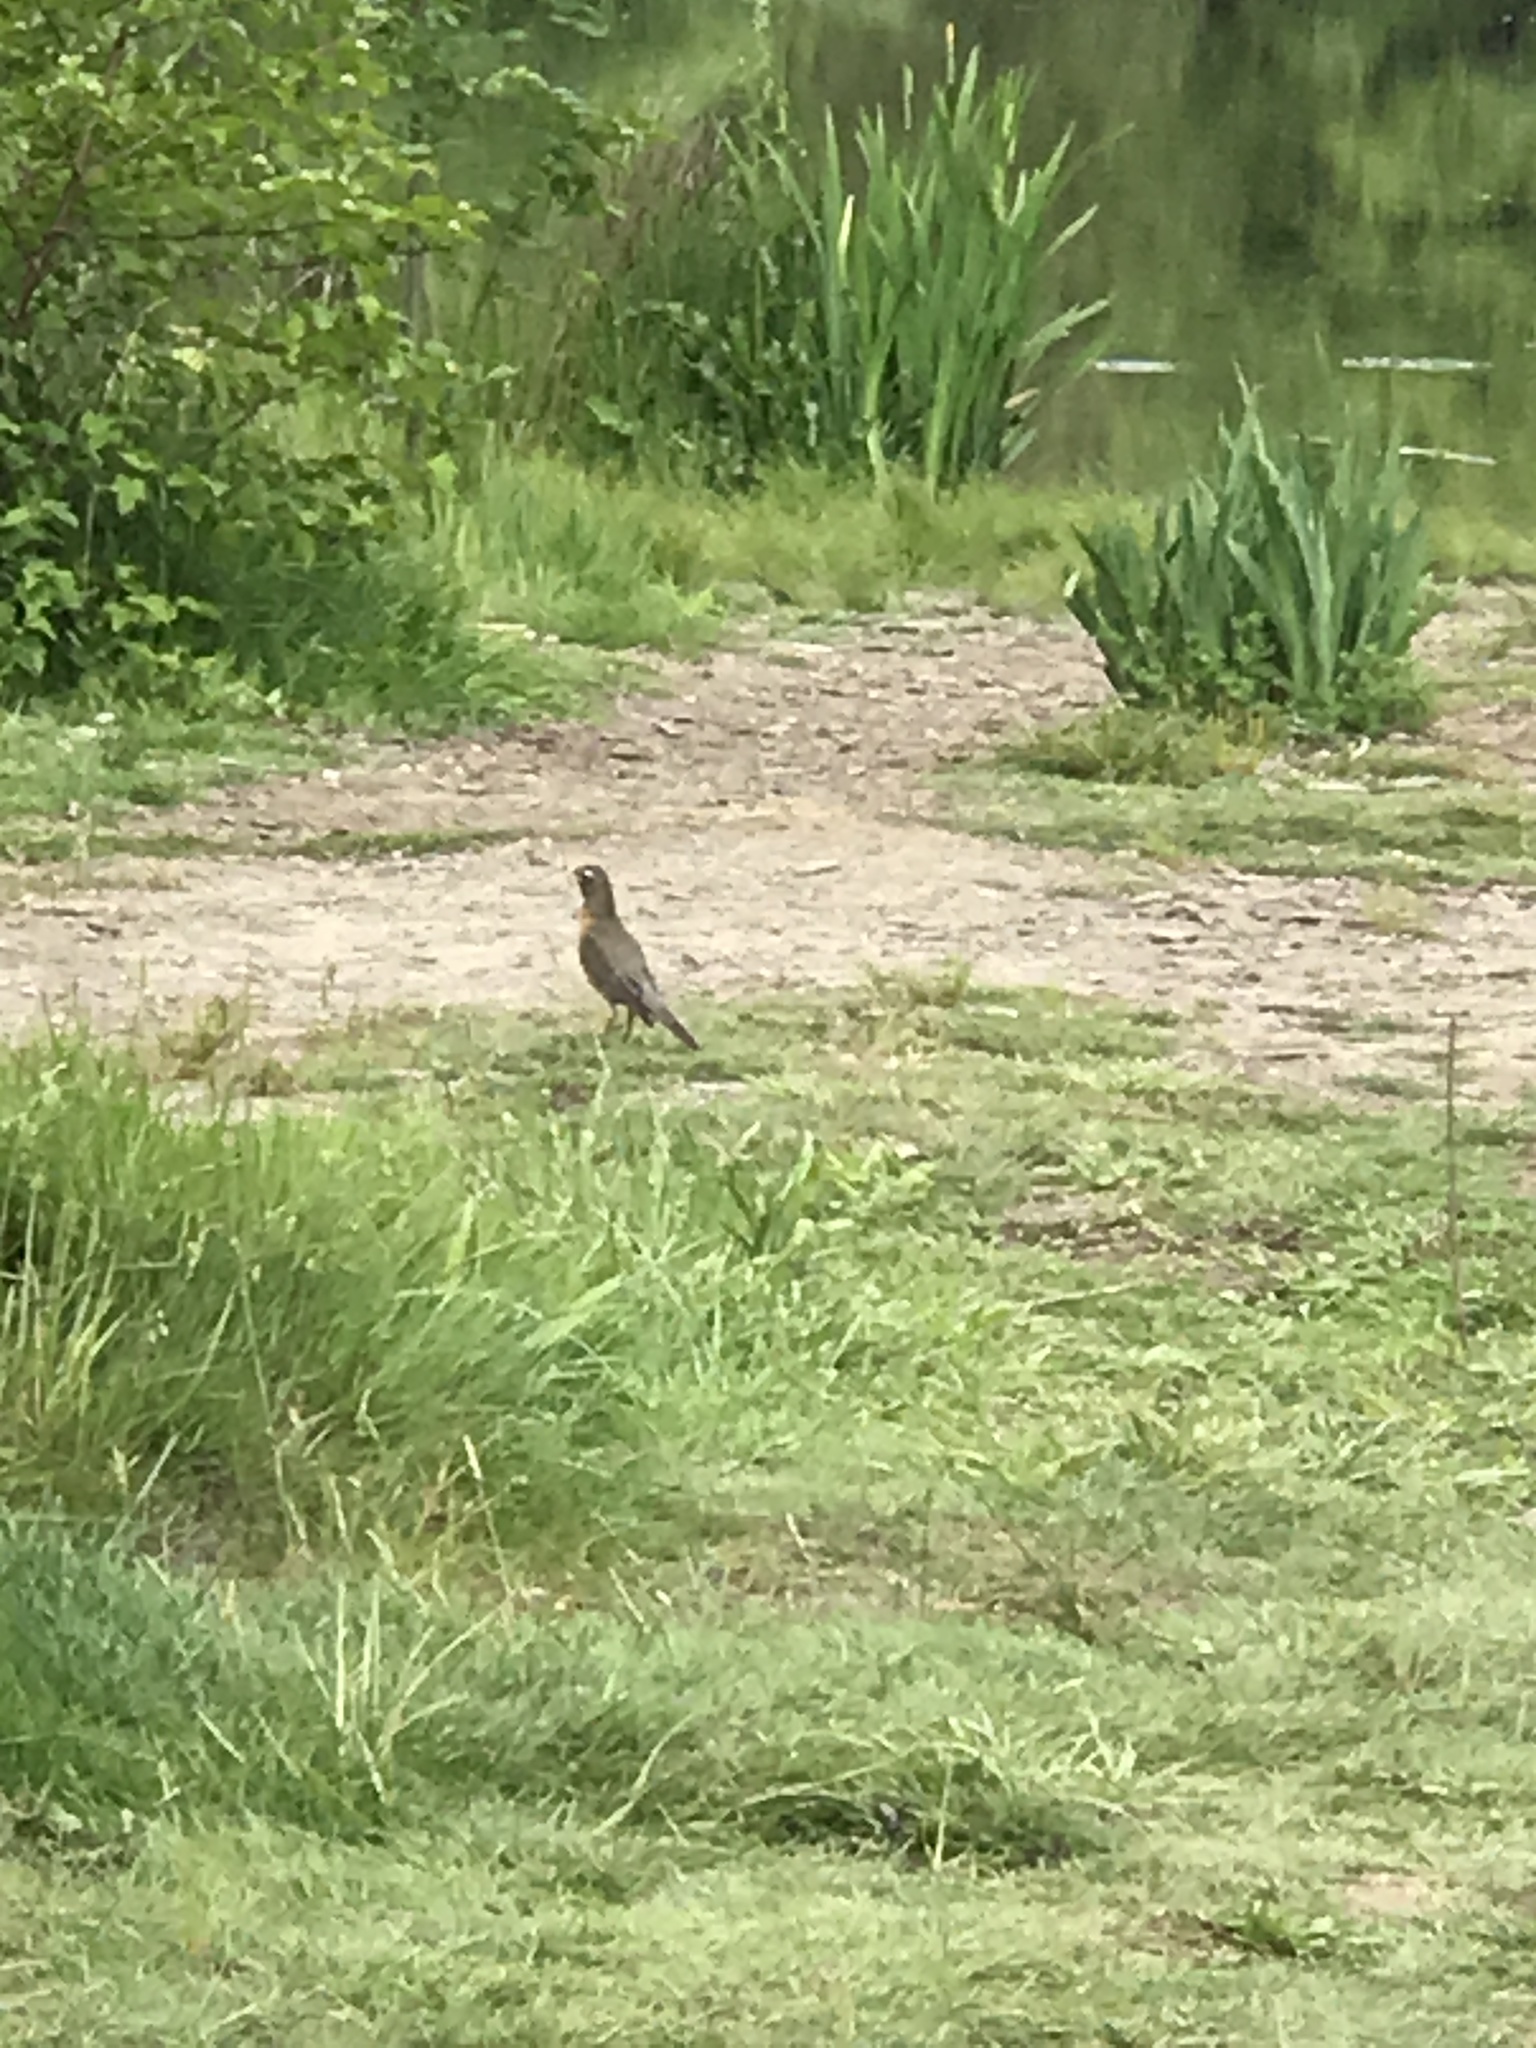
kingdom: Animalia
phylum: Chordata
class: Aves
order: Passeriformes
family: Turdidae
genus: Turdus
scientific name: Turdus migratorius
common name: American robin
